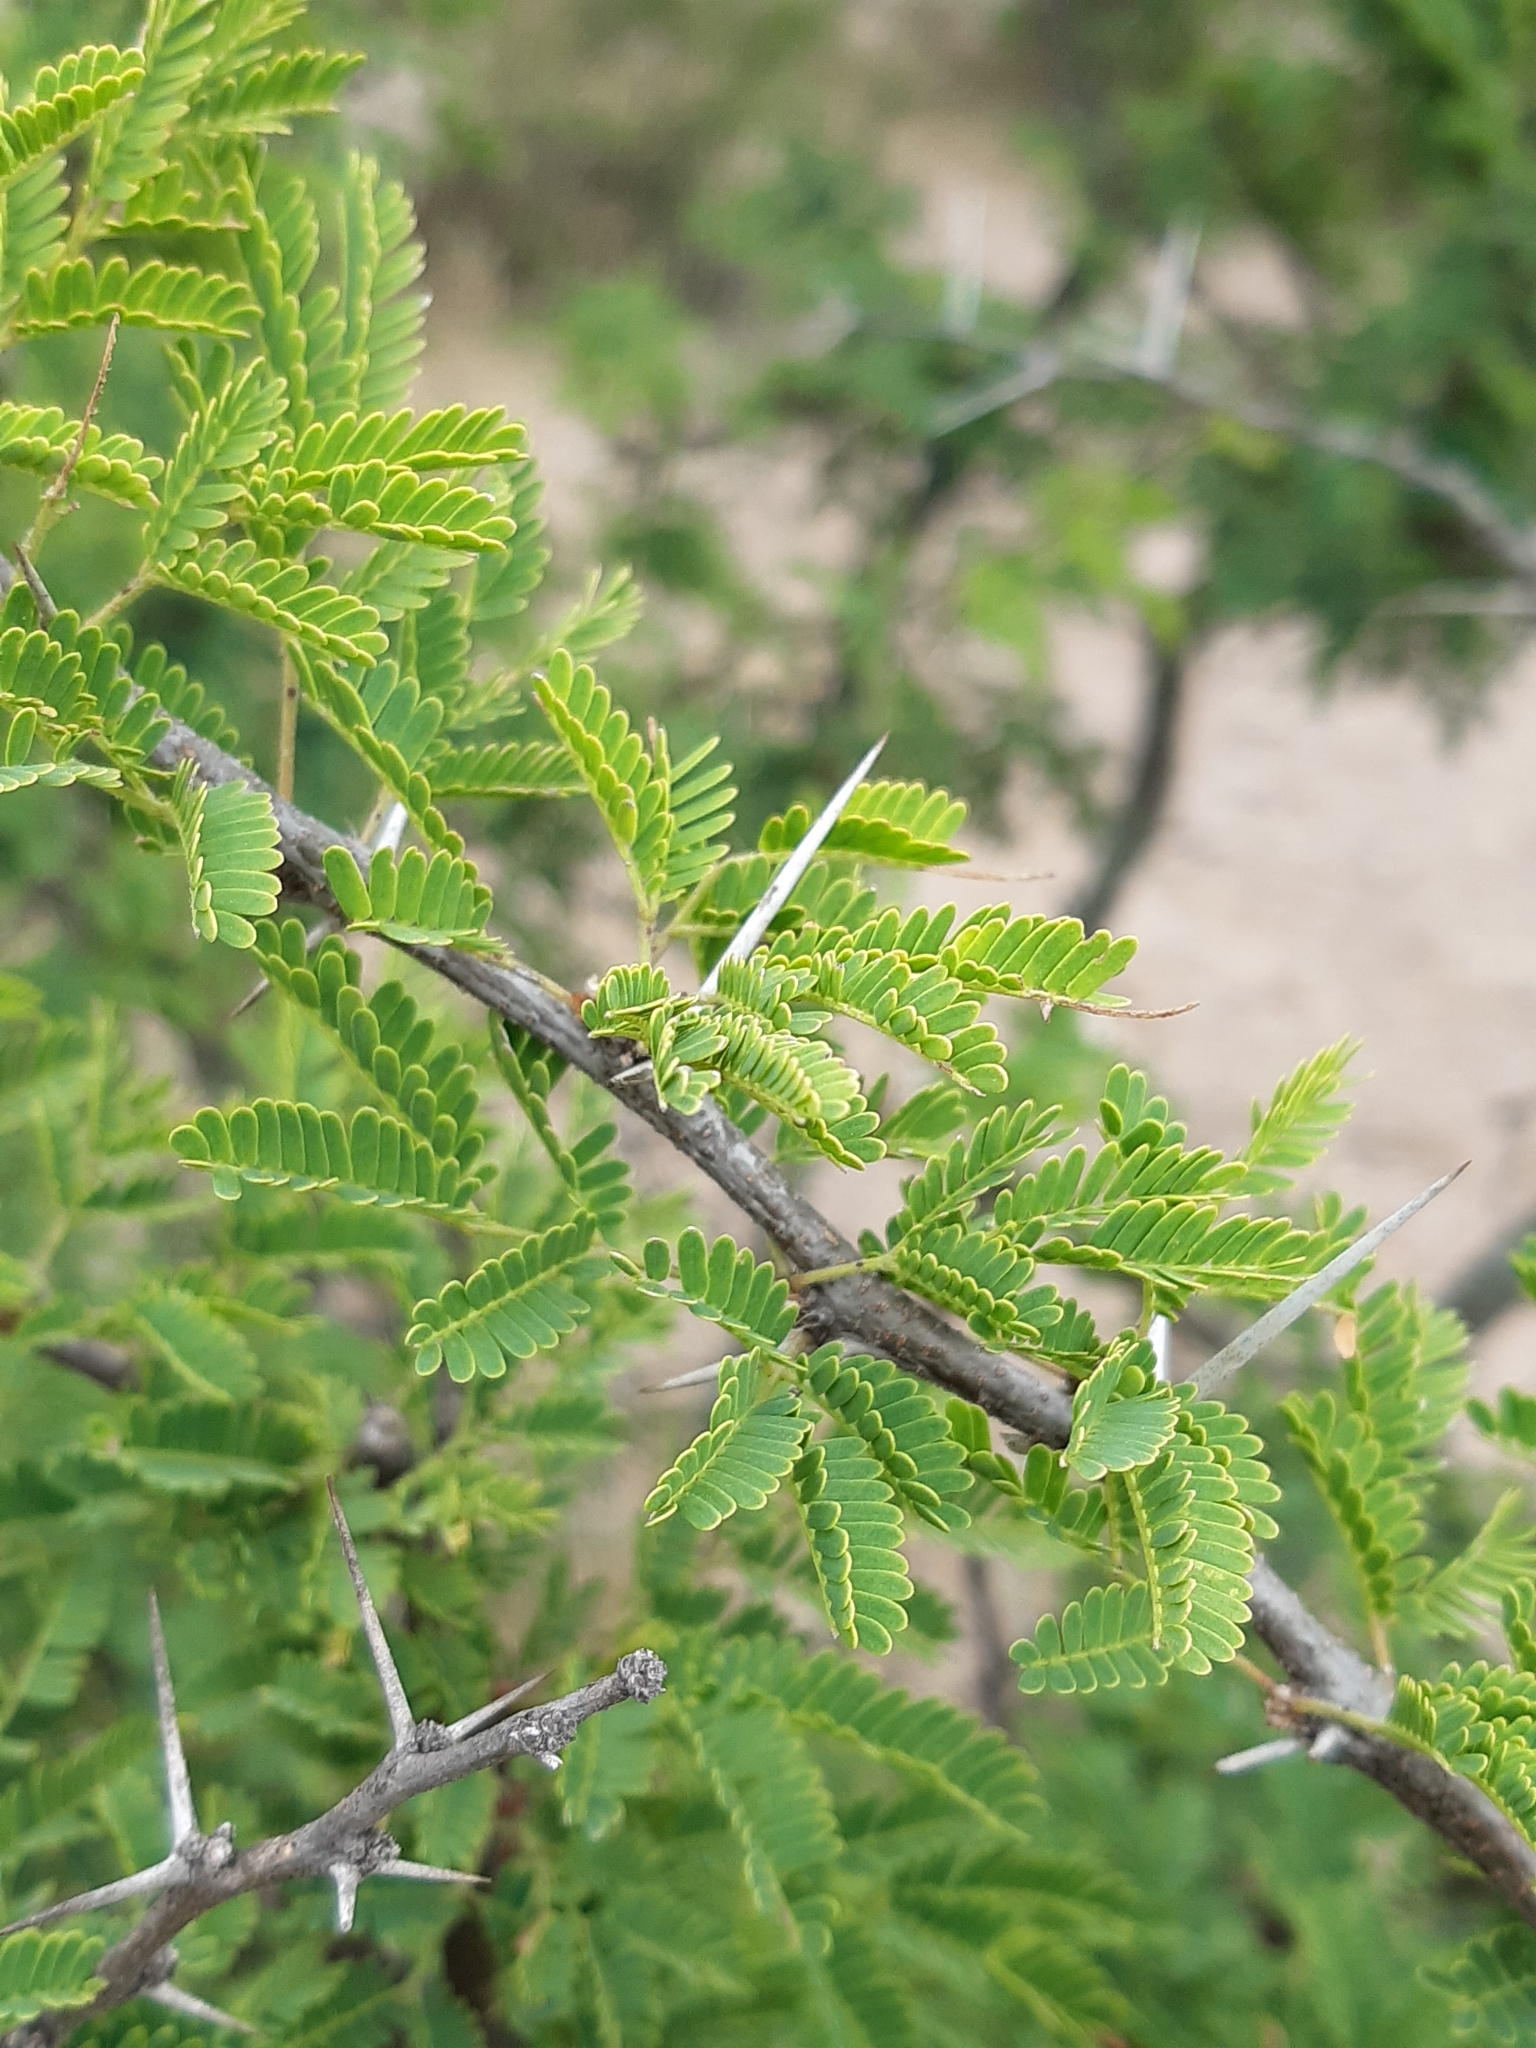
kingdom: Plantae
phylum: Tracheophyta
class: Magnoliopsida
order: Fabales
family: Fabaceae
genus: Vachellia
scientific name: Vachellia schaffneri
